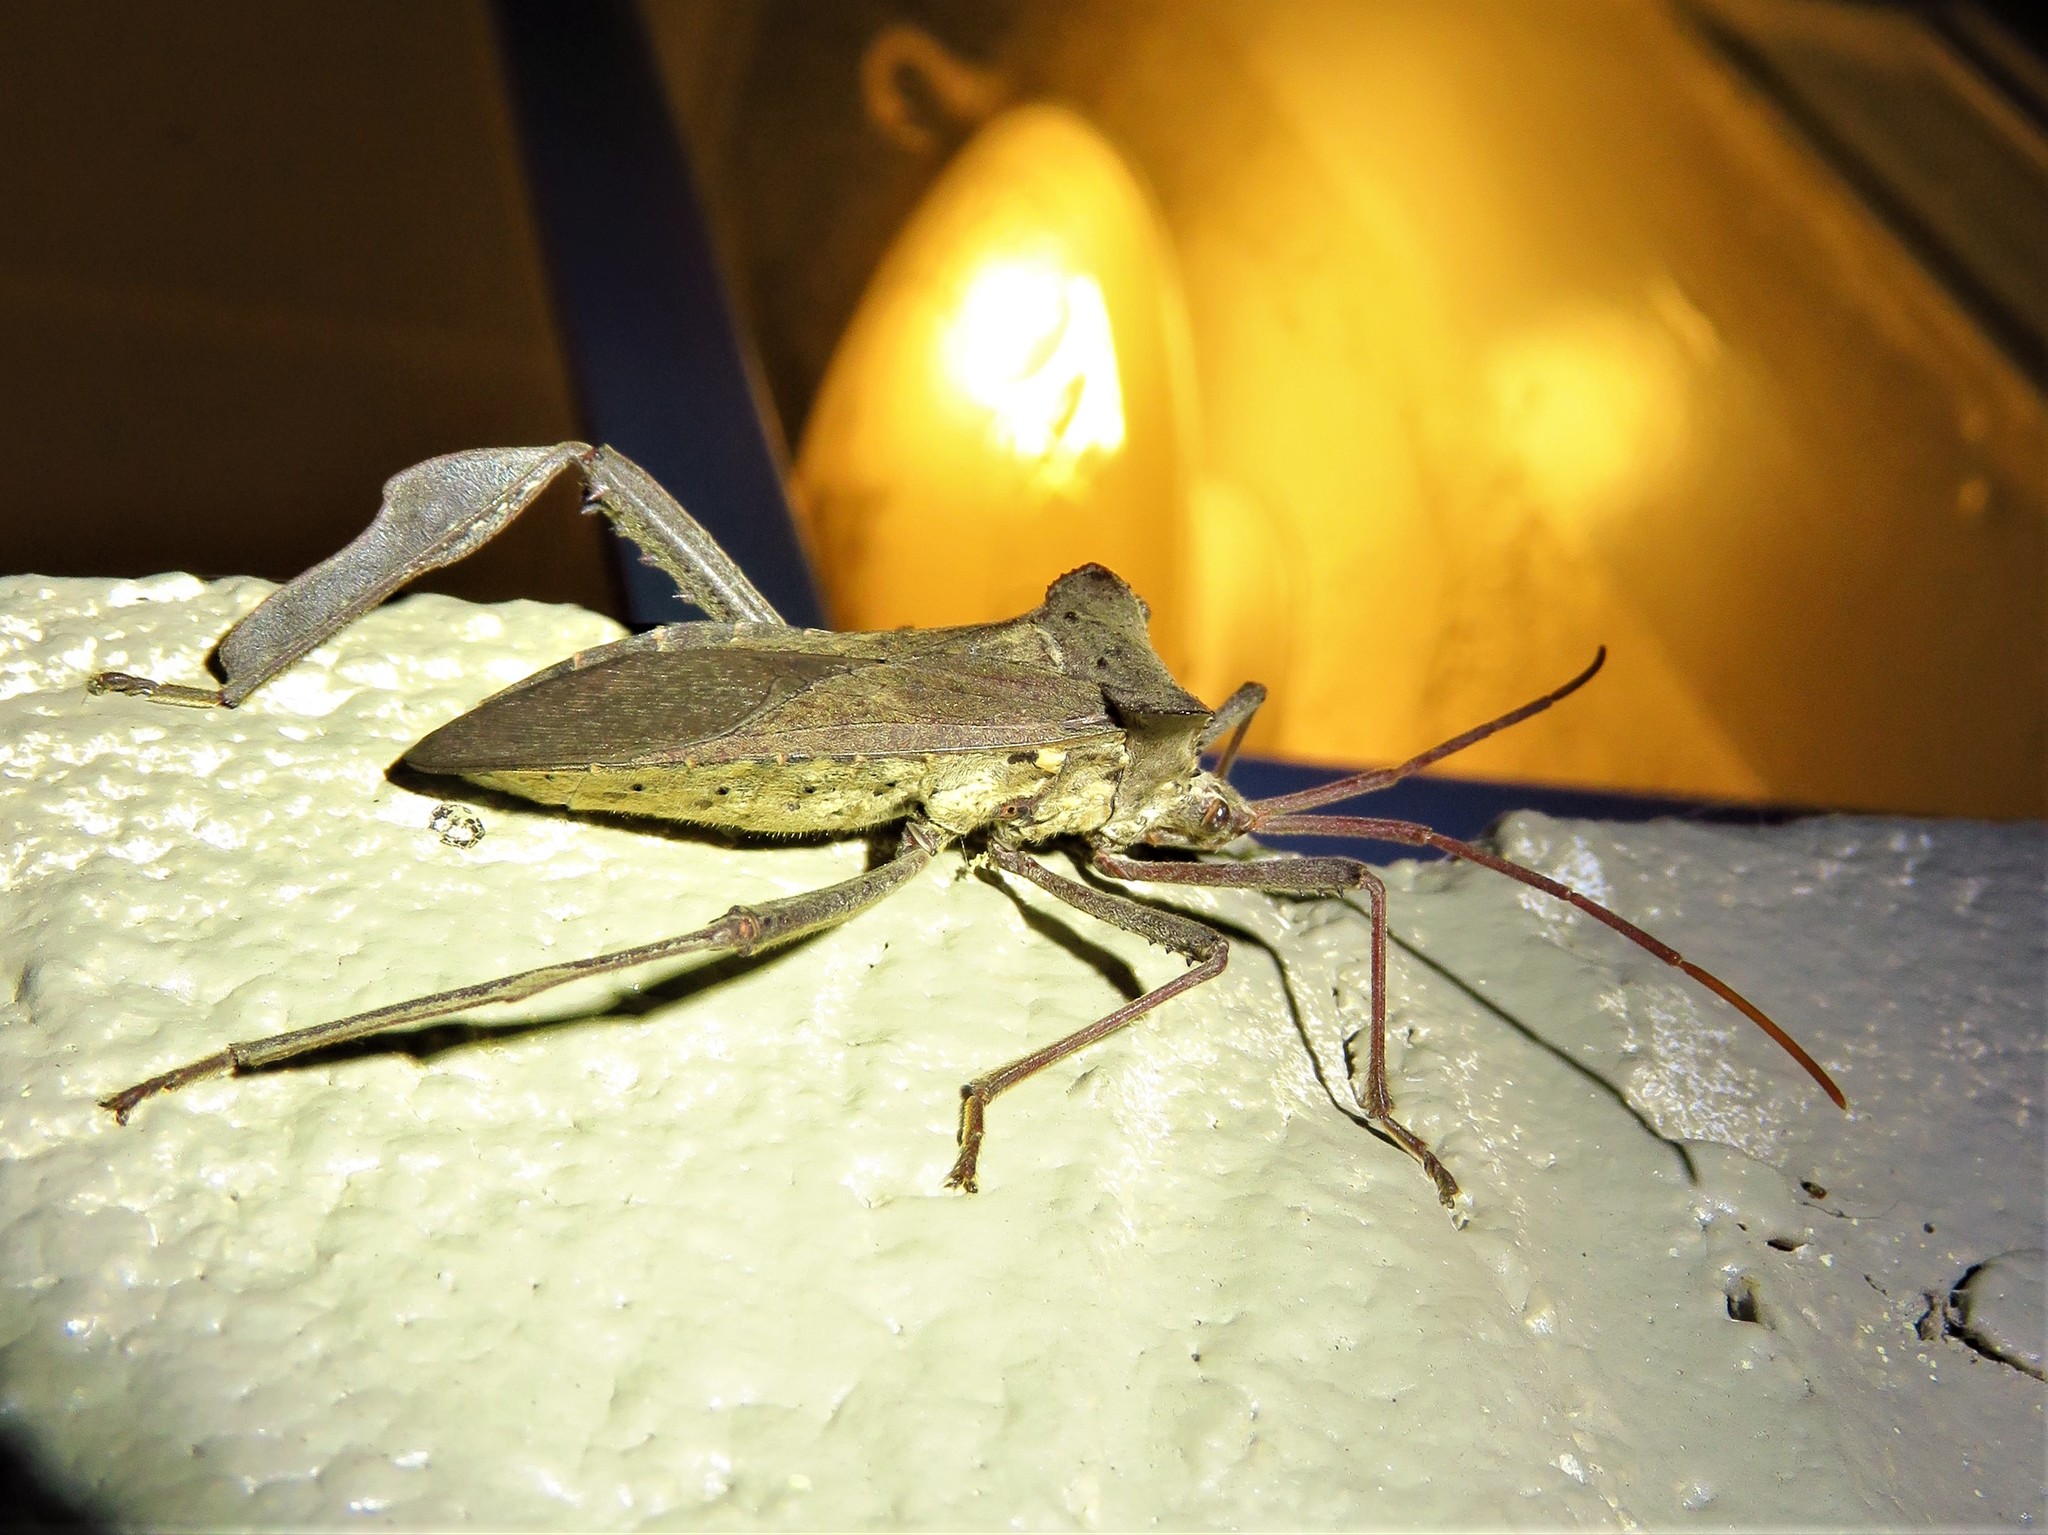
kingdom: Animalia
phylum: Arthropoda
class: Insecta
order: Hemiptera
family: Coreidae
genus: Acanthocephala
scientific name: Acanthocephala declivis
